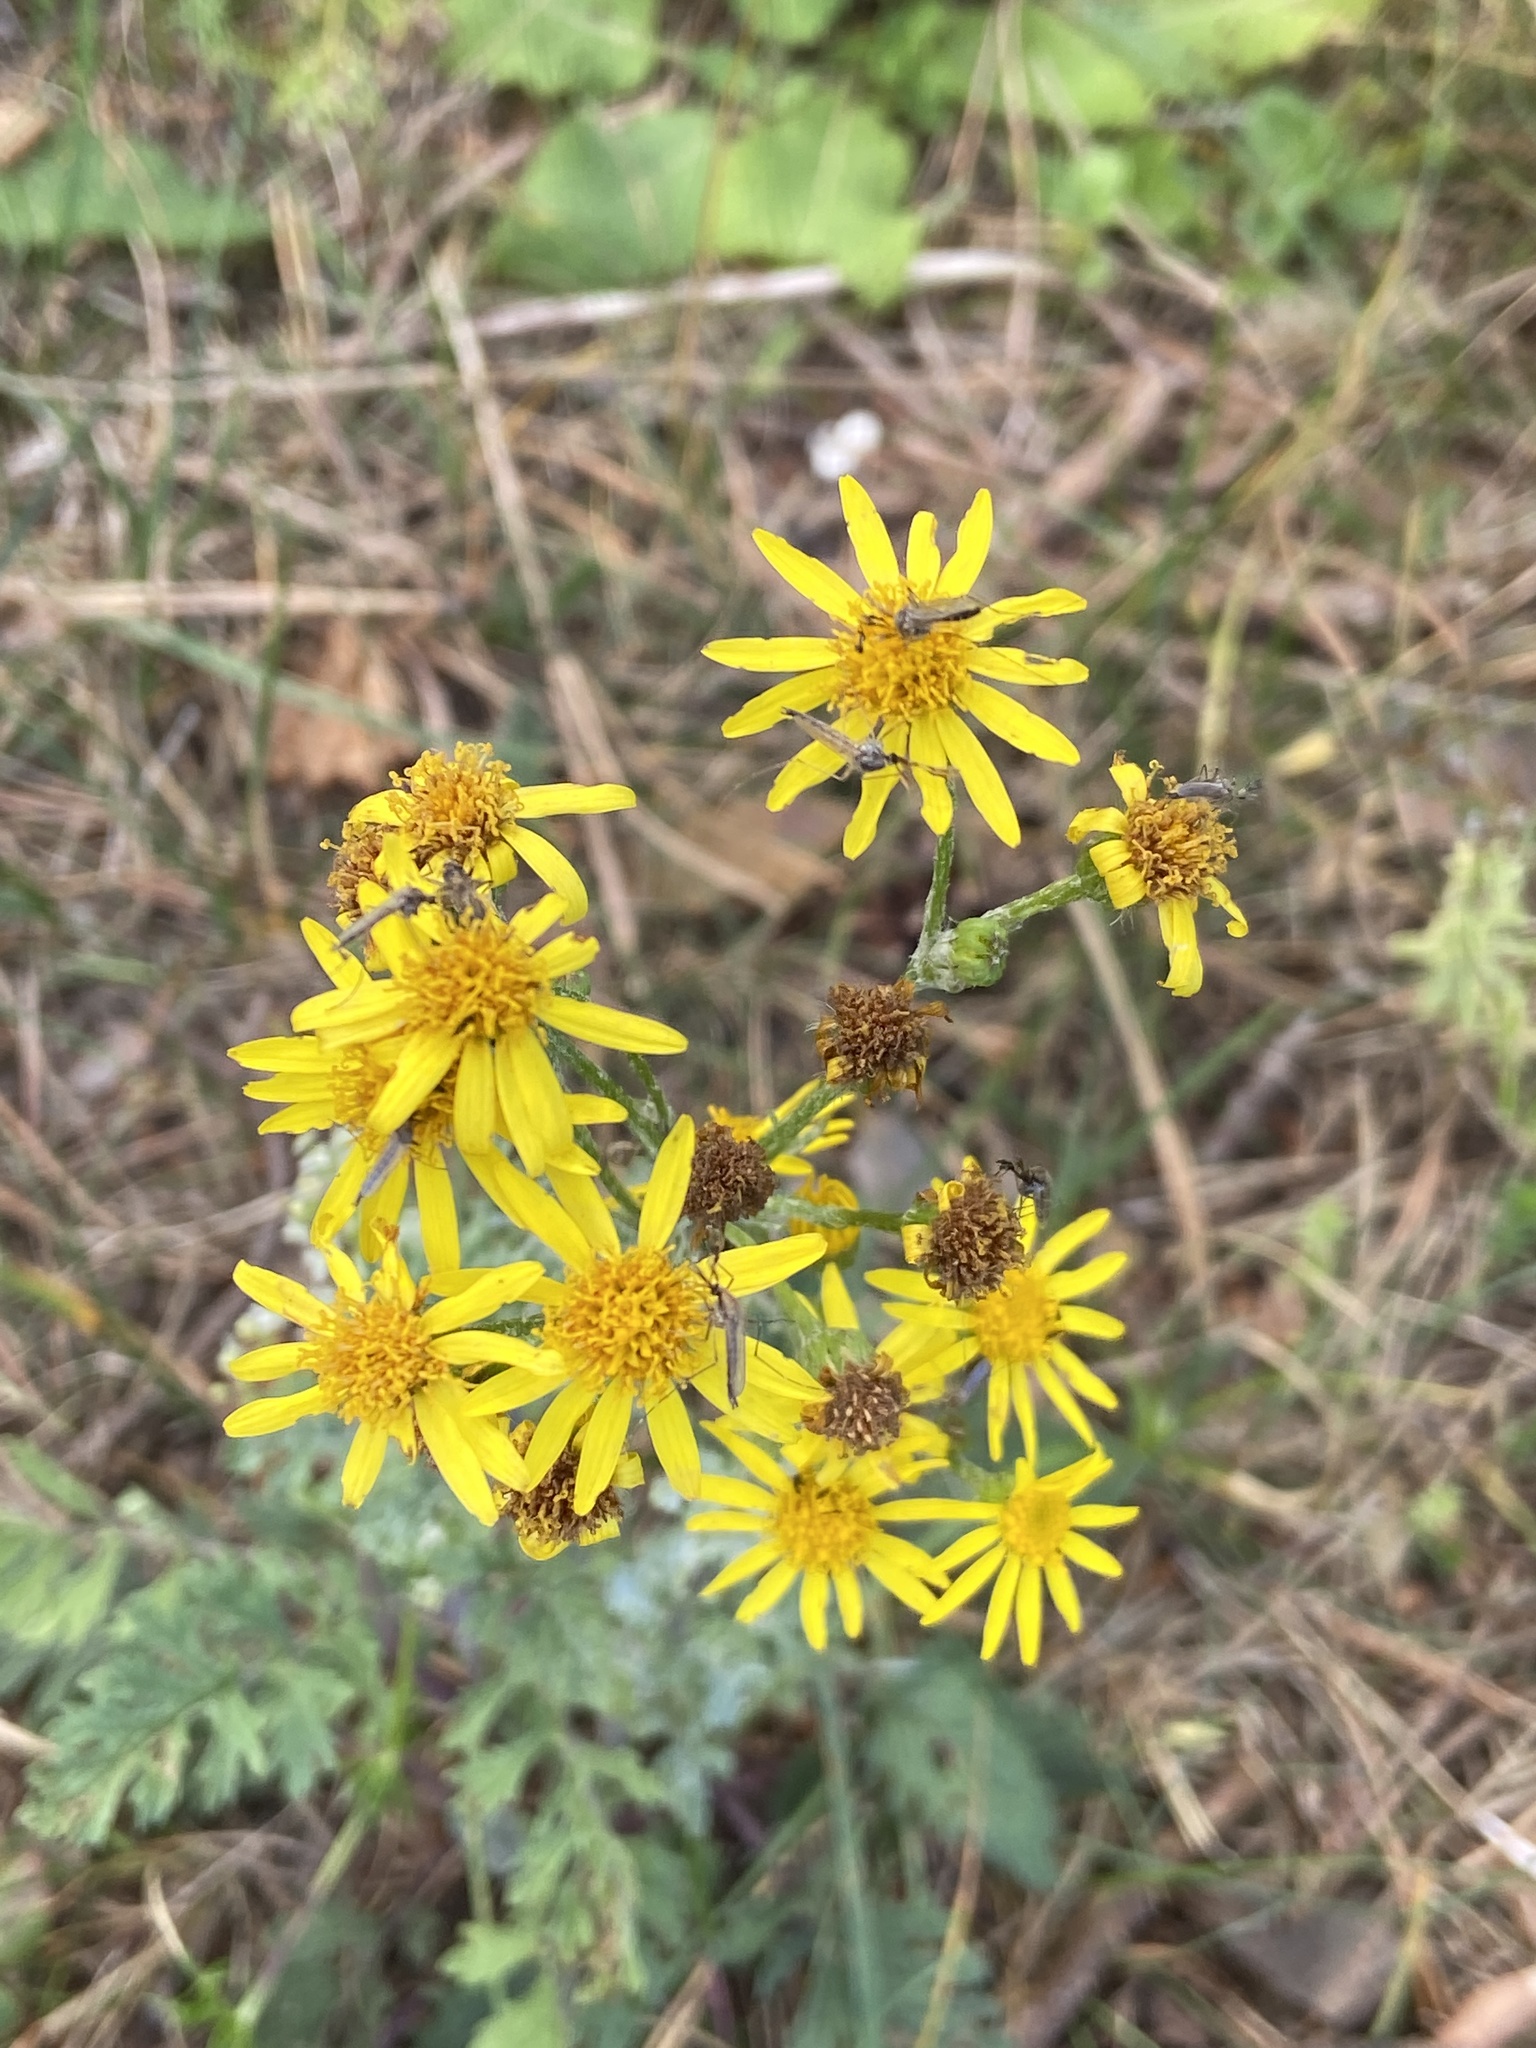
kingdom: Plantae
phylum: Tracheophyta
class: Magnoliopsida
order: Asterales
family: Asteraceae
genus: Jacobaea
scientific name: Jacobaea vulgaris
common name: Stinking willie
